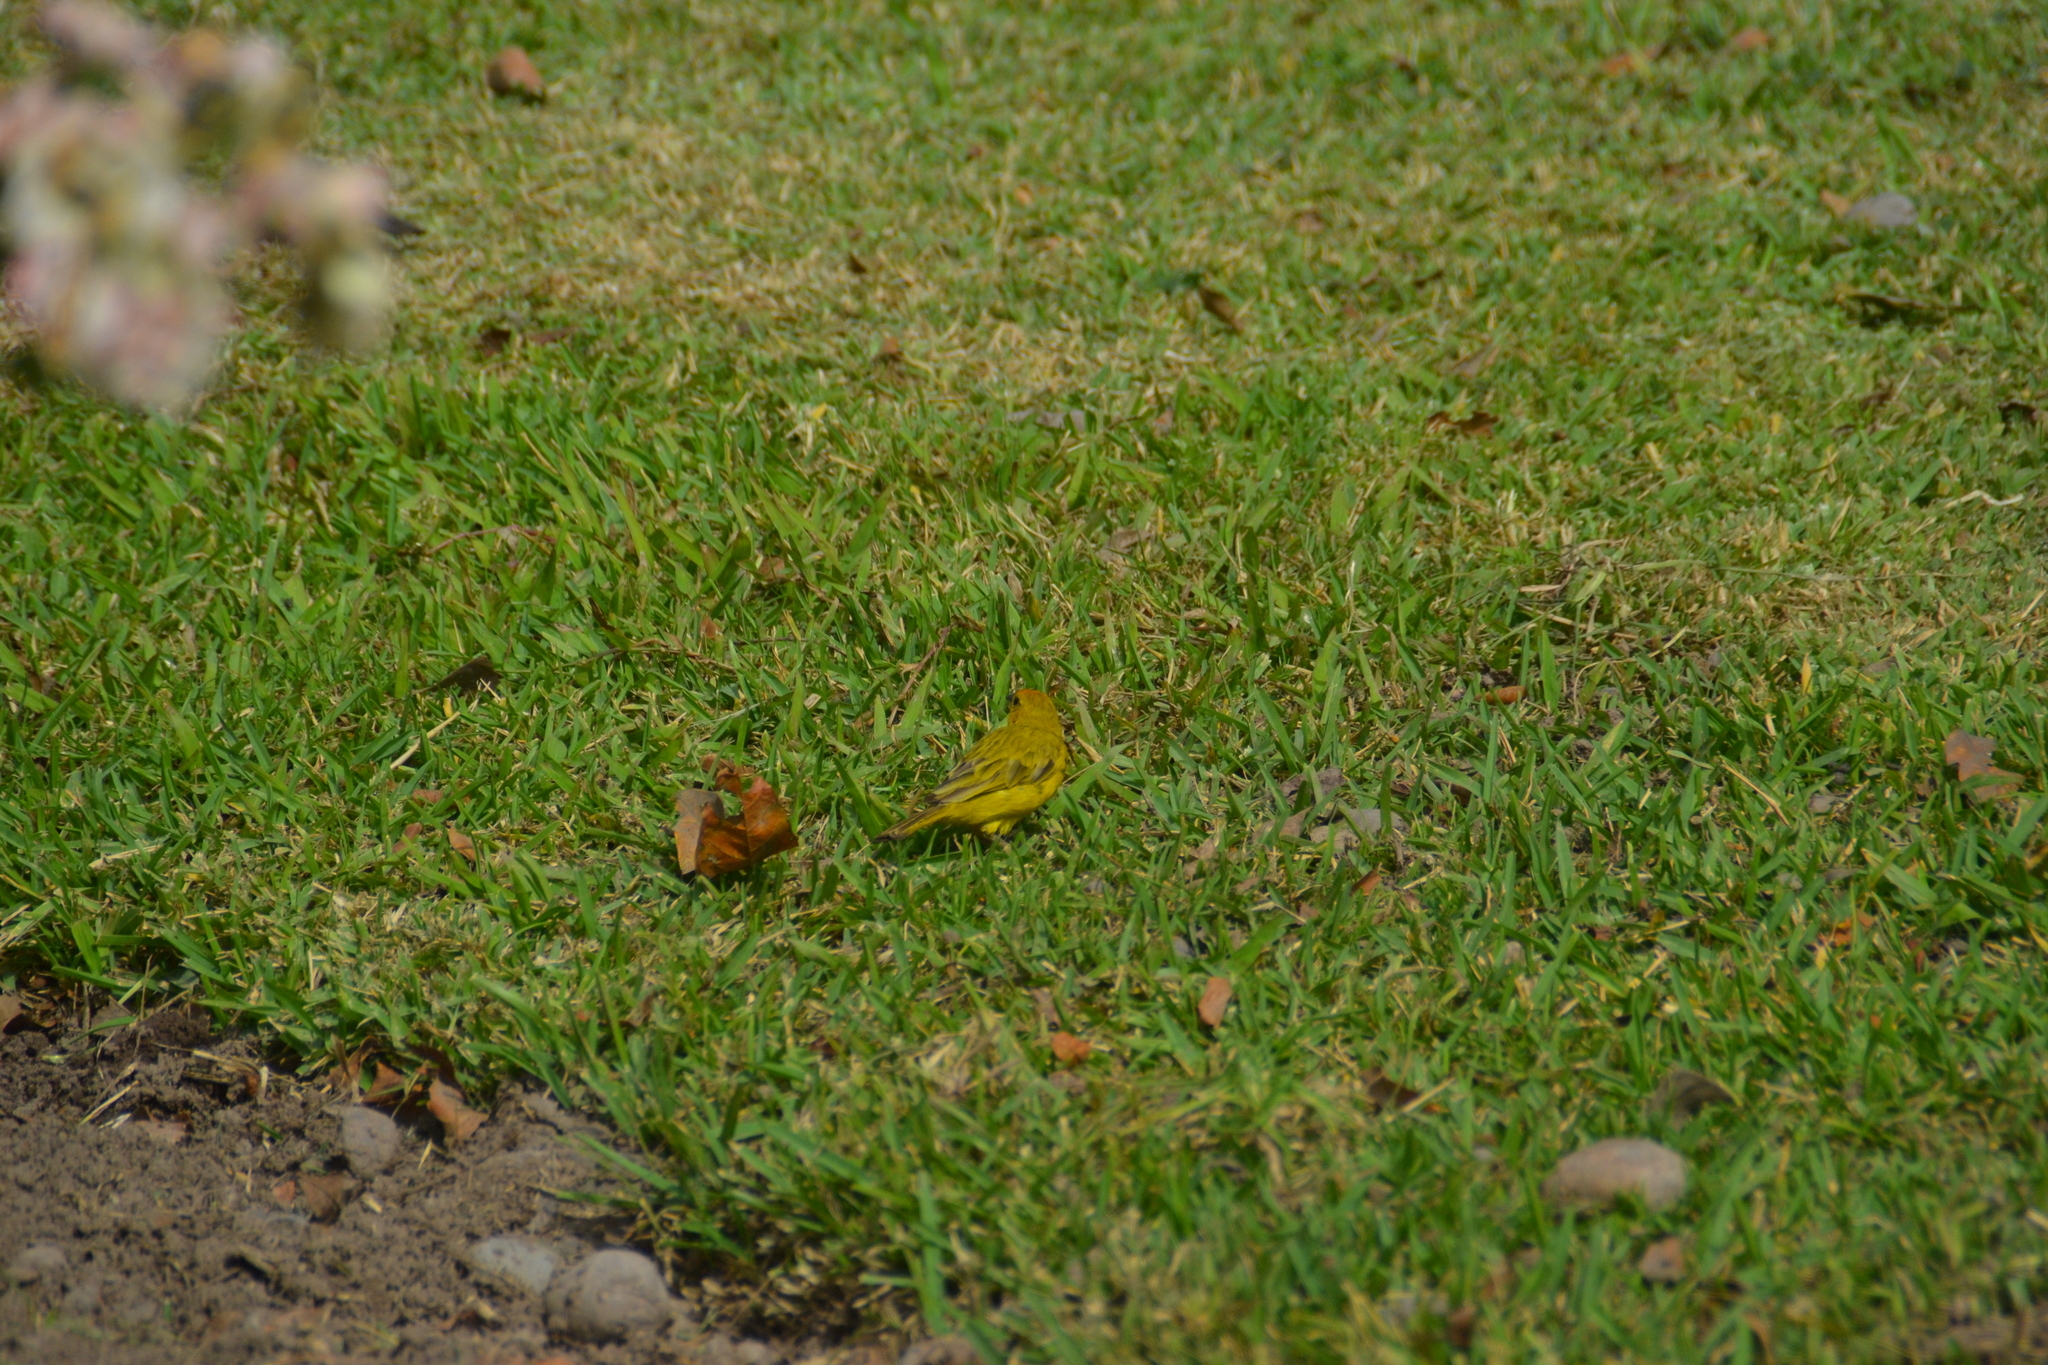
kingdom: Animalia
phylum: Chordata
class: Aves
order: Passeriformes
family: Thraupidae
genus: Sicalis
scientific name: Sicalis flaveola
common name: Saffron finch
